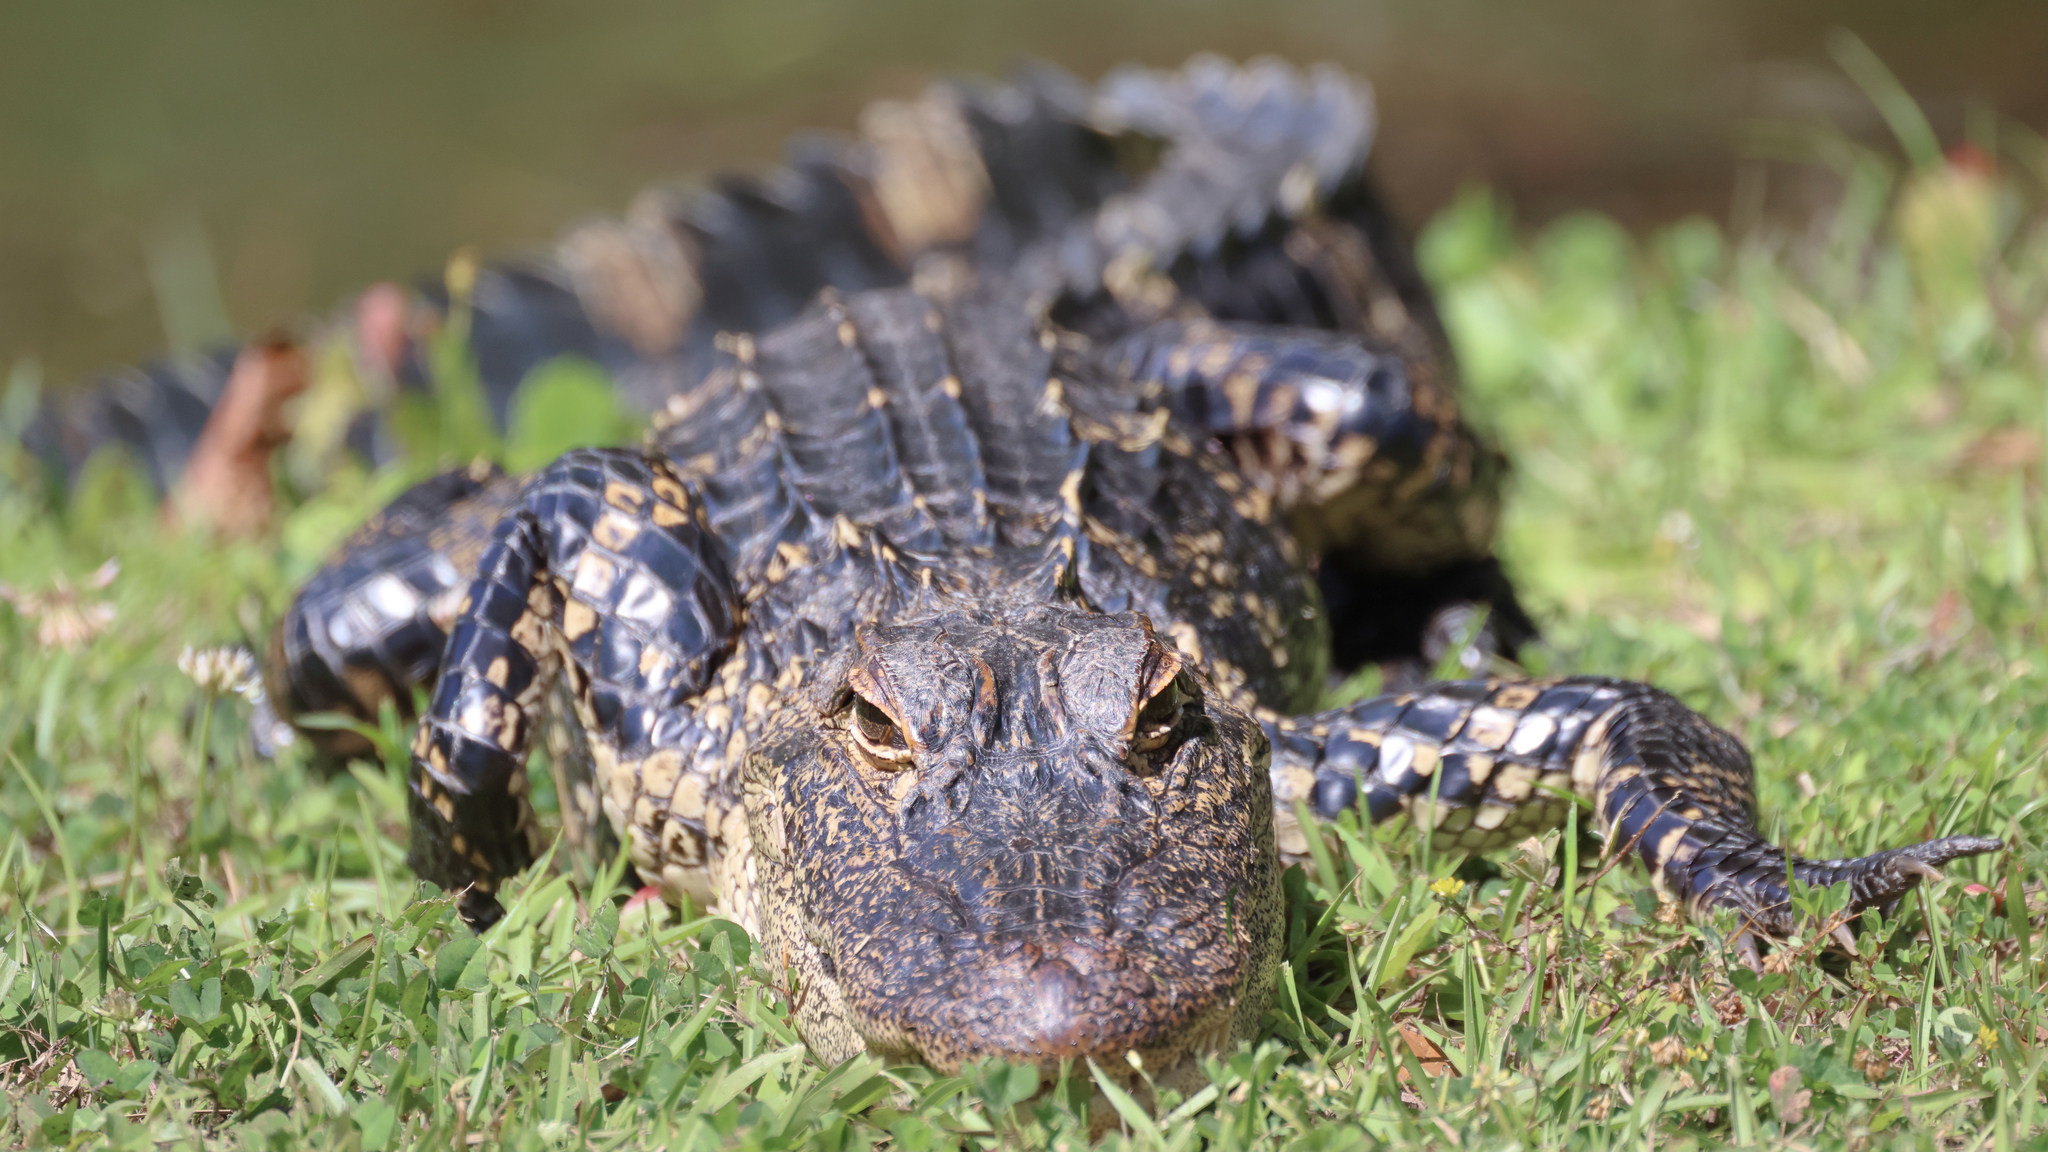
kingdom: Animalia
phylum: Chordata
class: Crocodylia
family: Alligatoridae
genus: Alligator
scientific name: Alligator mississippiensis
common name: American alligator
